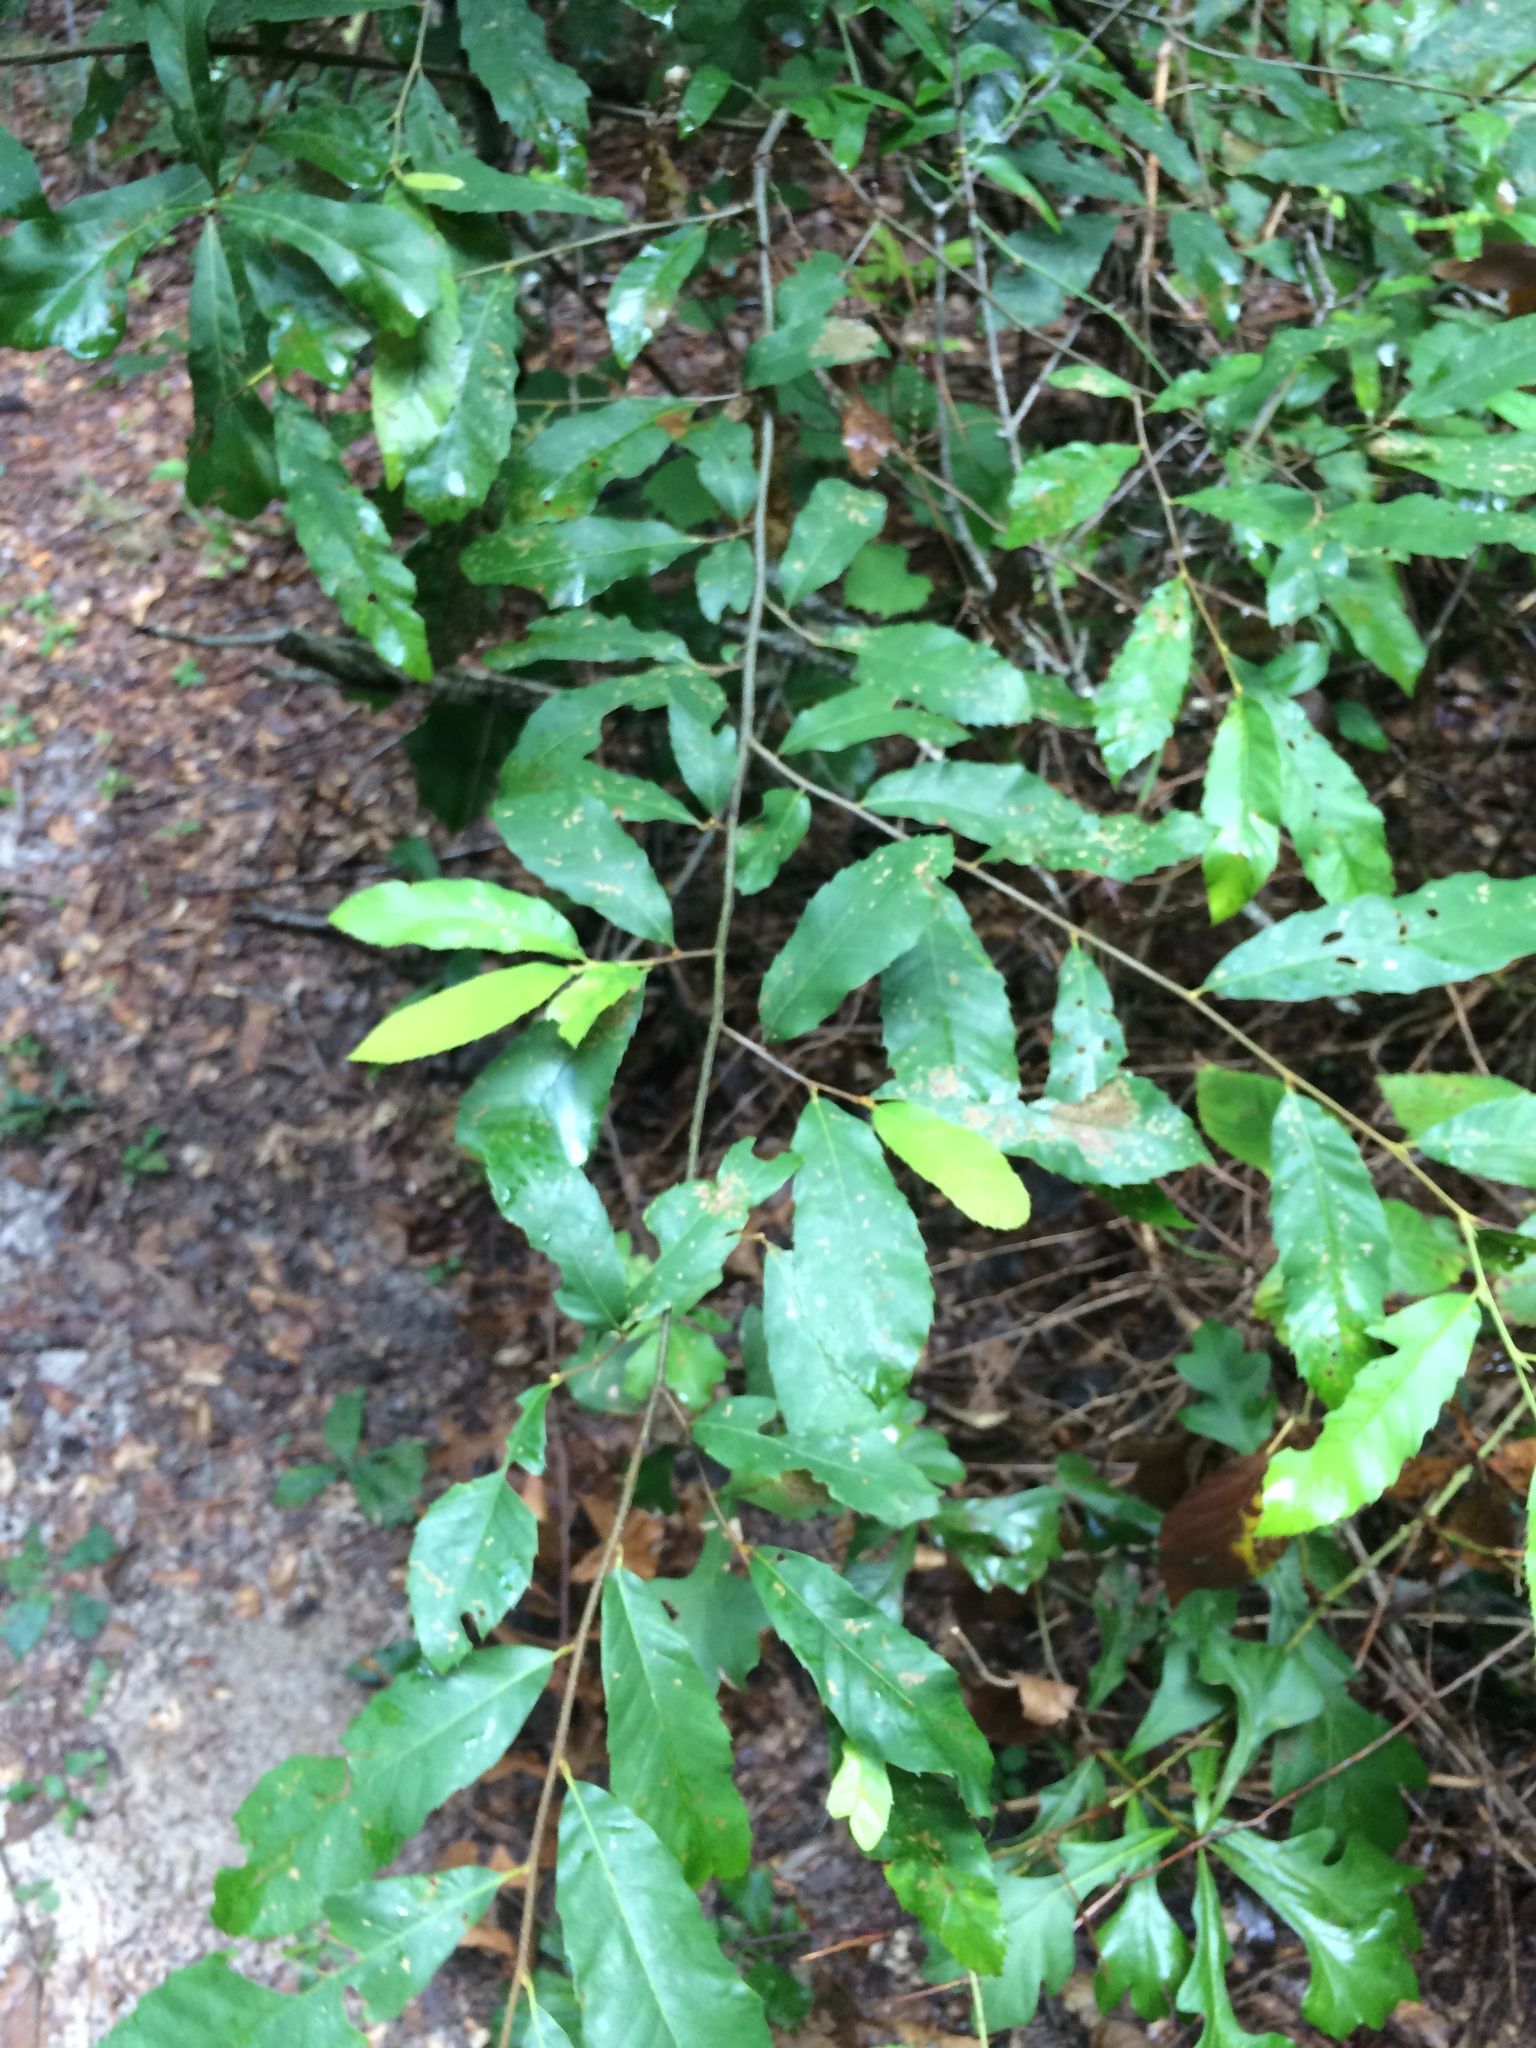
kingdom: Plantae
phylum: Tracheophyta
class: Magnoliopsida
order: Fagales
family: Fagaceae
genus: Castanea
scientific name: Castanea pumila
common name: Chinkapin
